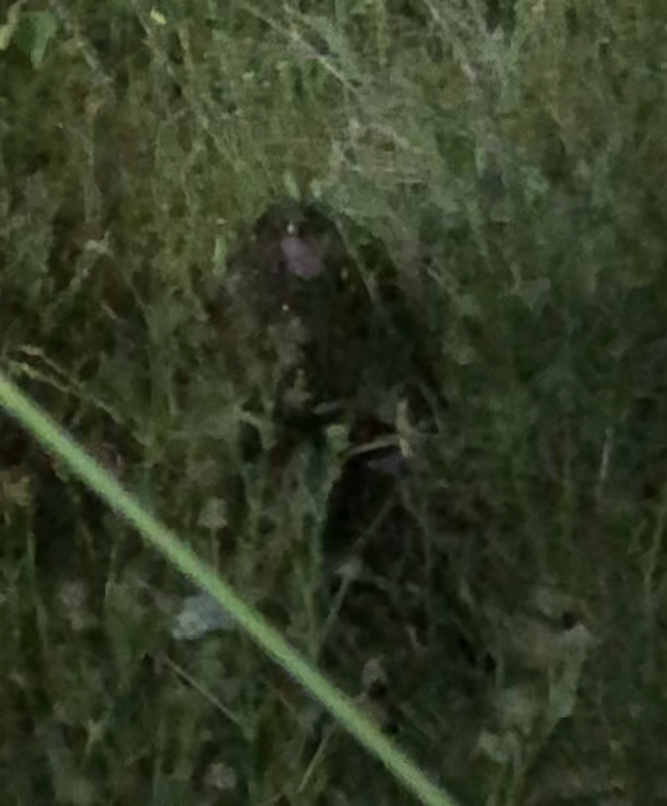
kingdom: Animalia
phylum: Chordata
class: Mammalia
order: Rodentia
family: Erethizontidae
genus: Erethizon
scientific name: Erethizon dorsatus
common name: North american porcupine
